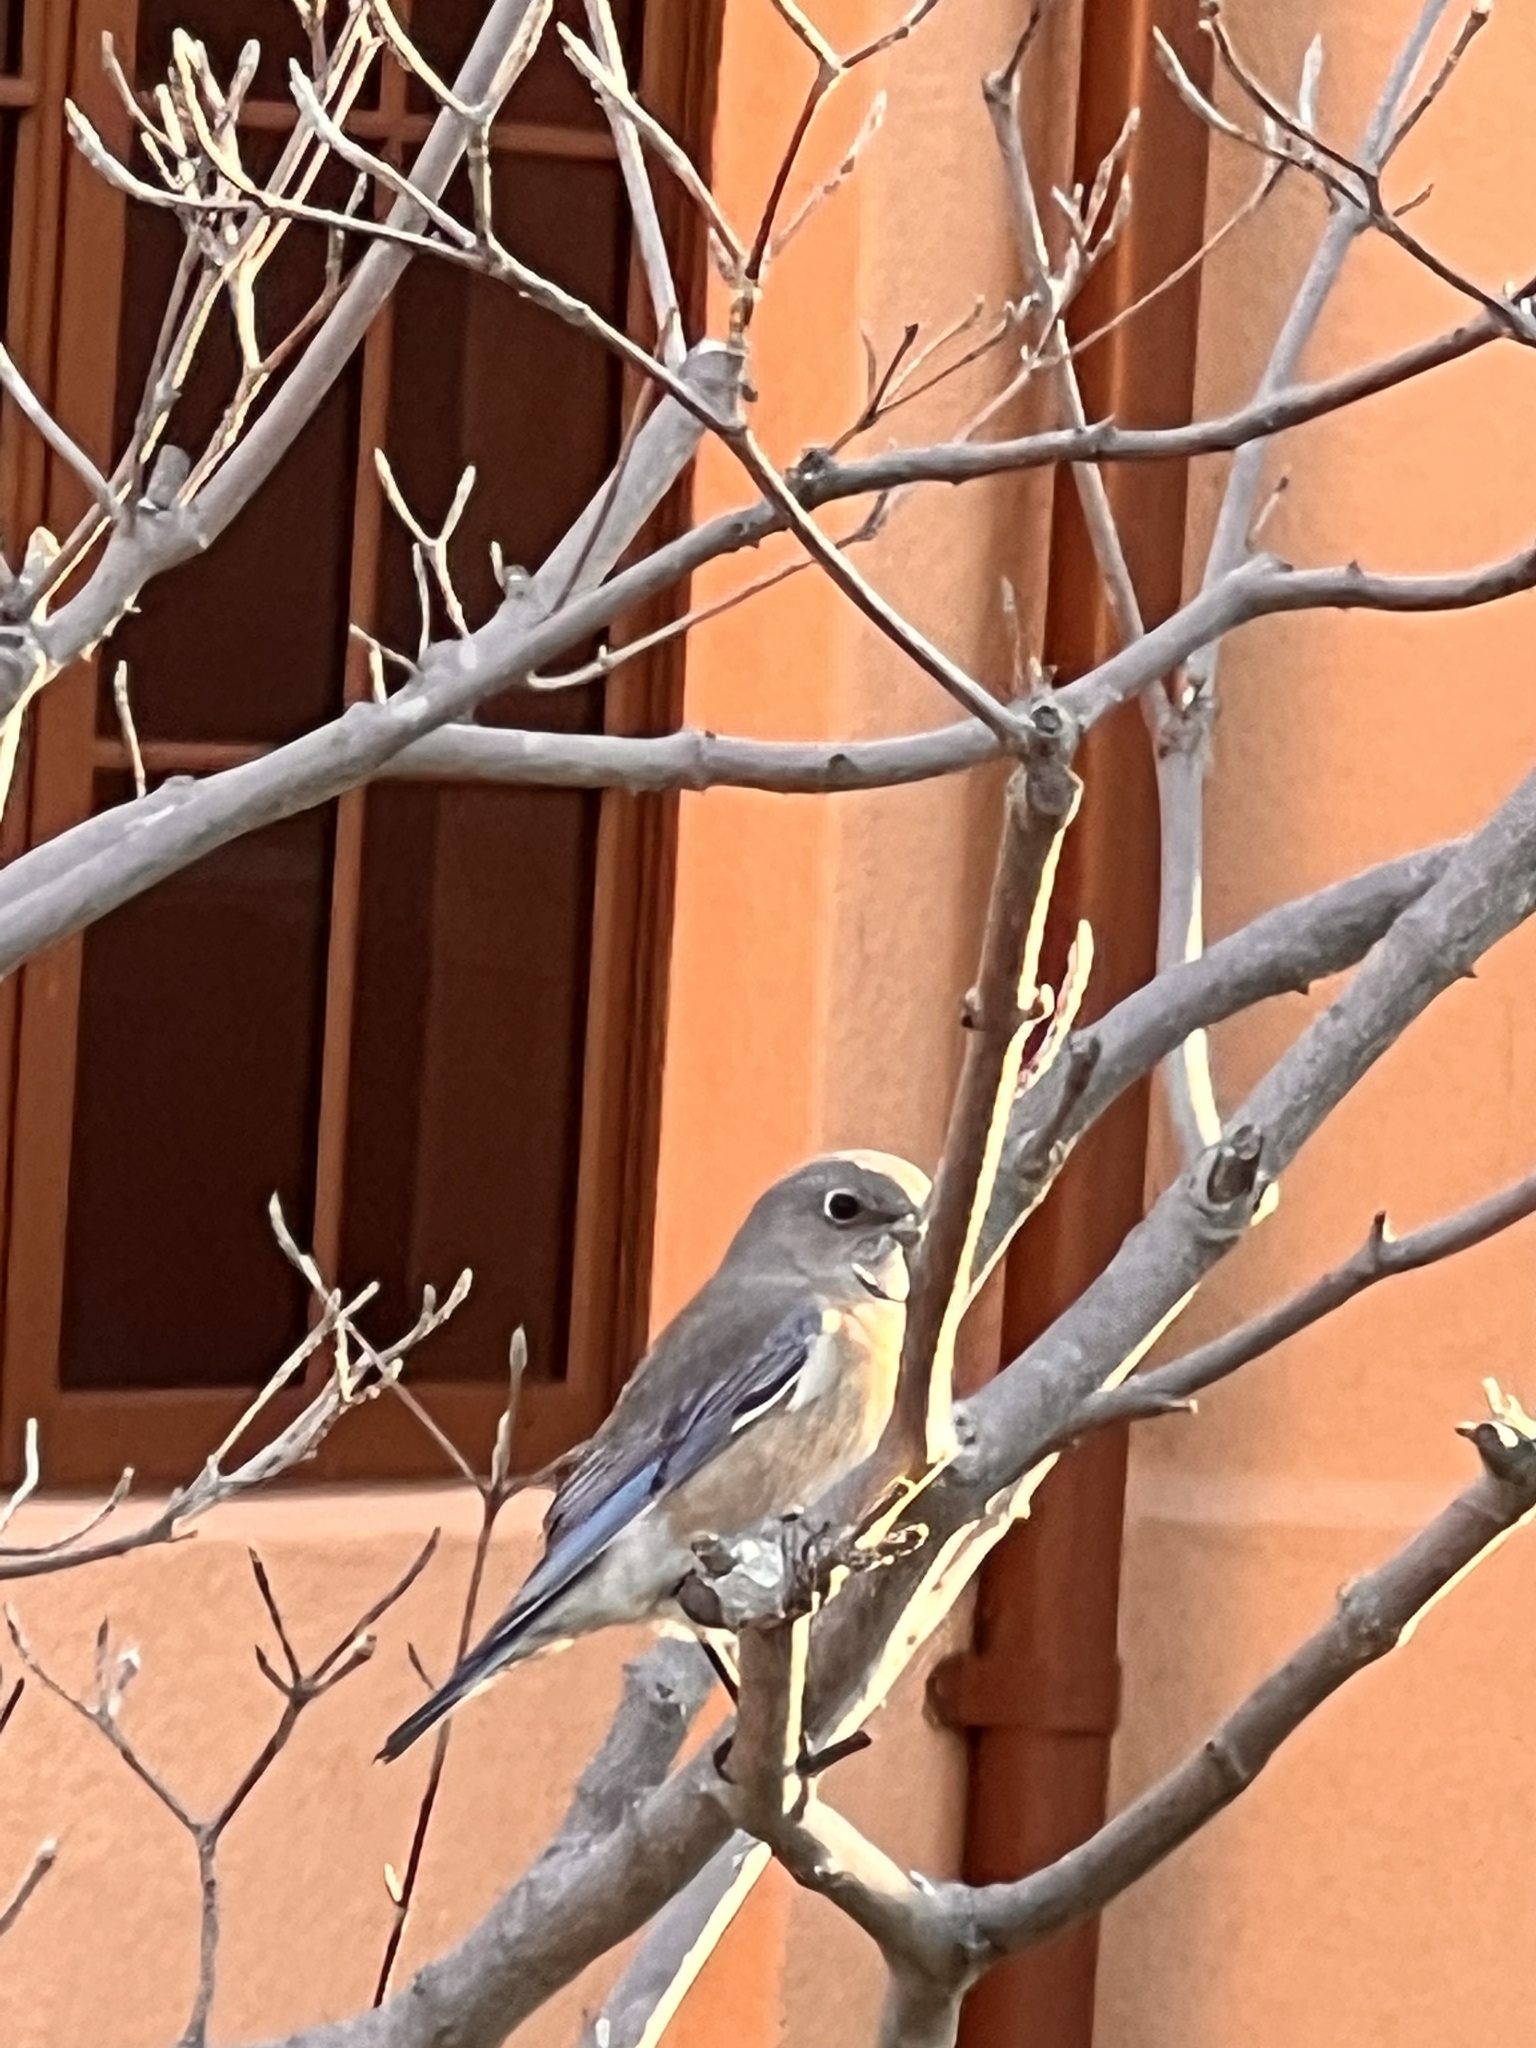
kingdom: Animalia
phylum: Chordata
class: Aves
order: Passeriformes
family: Turdidae
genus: Sialia
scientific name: Sialia mexicana
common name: Western bluebird
